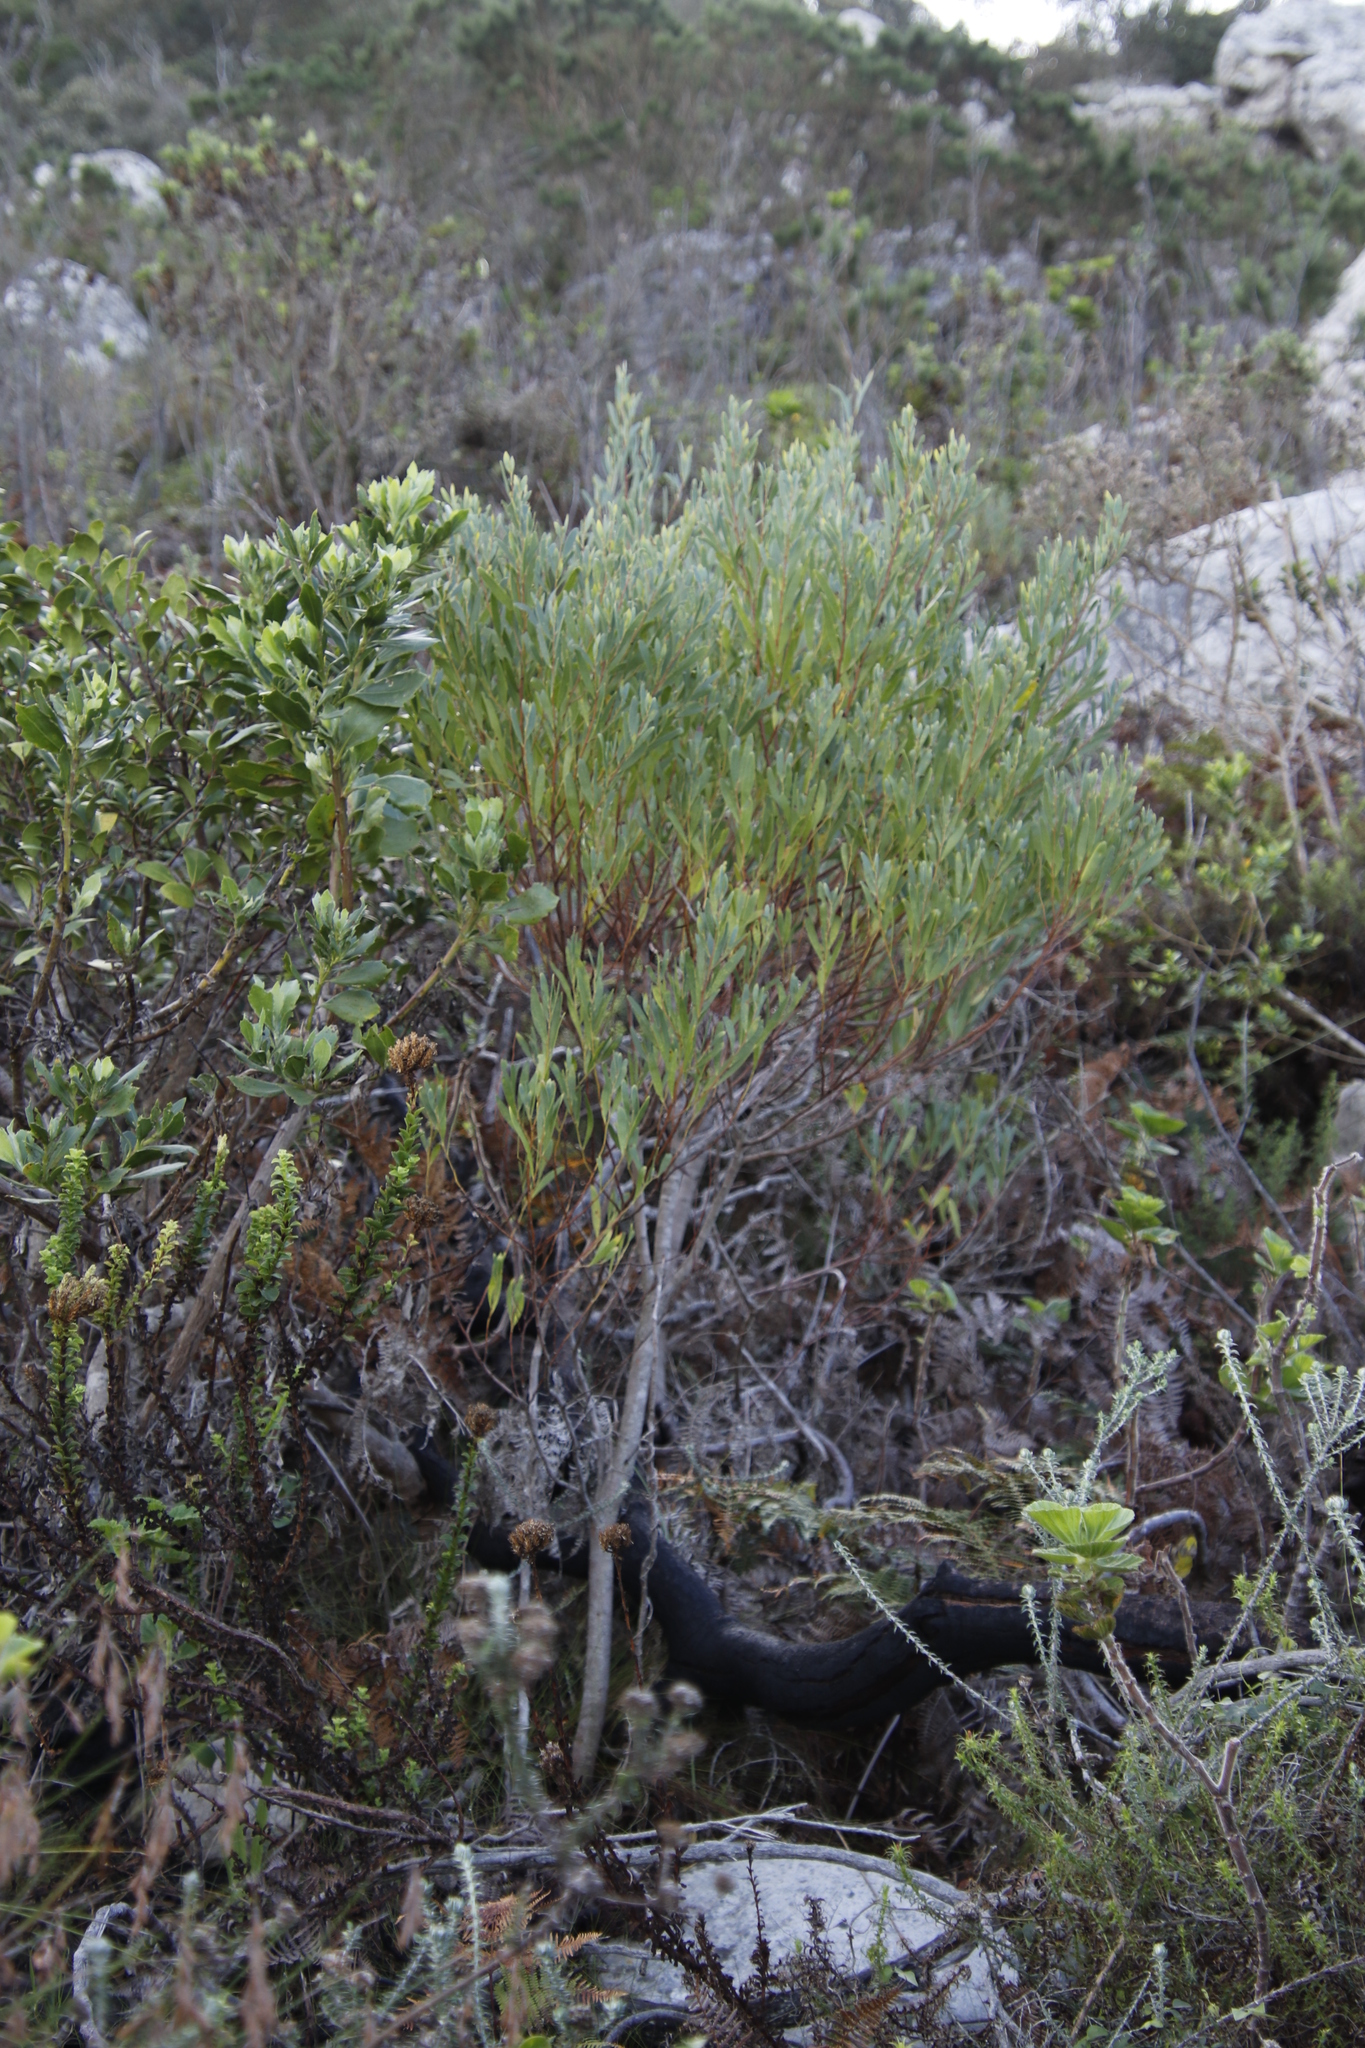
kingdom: Plantae
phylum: Tracheophyta
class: Magnoliopsida
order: Fabales
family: Fabaceae
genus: Acacia
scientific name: Acacia cyclops
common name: Coastal wattle
